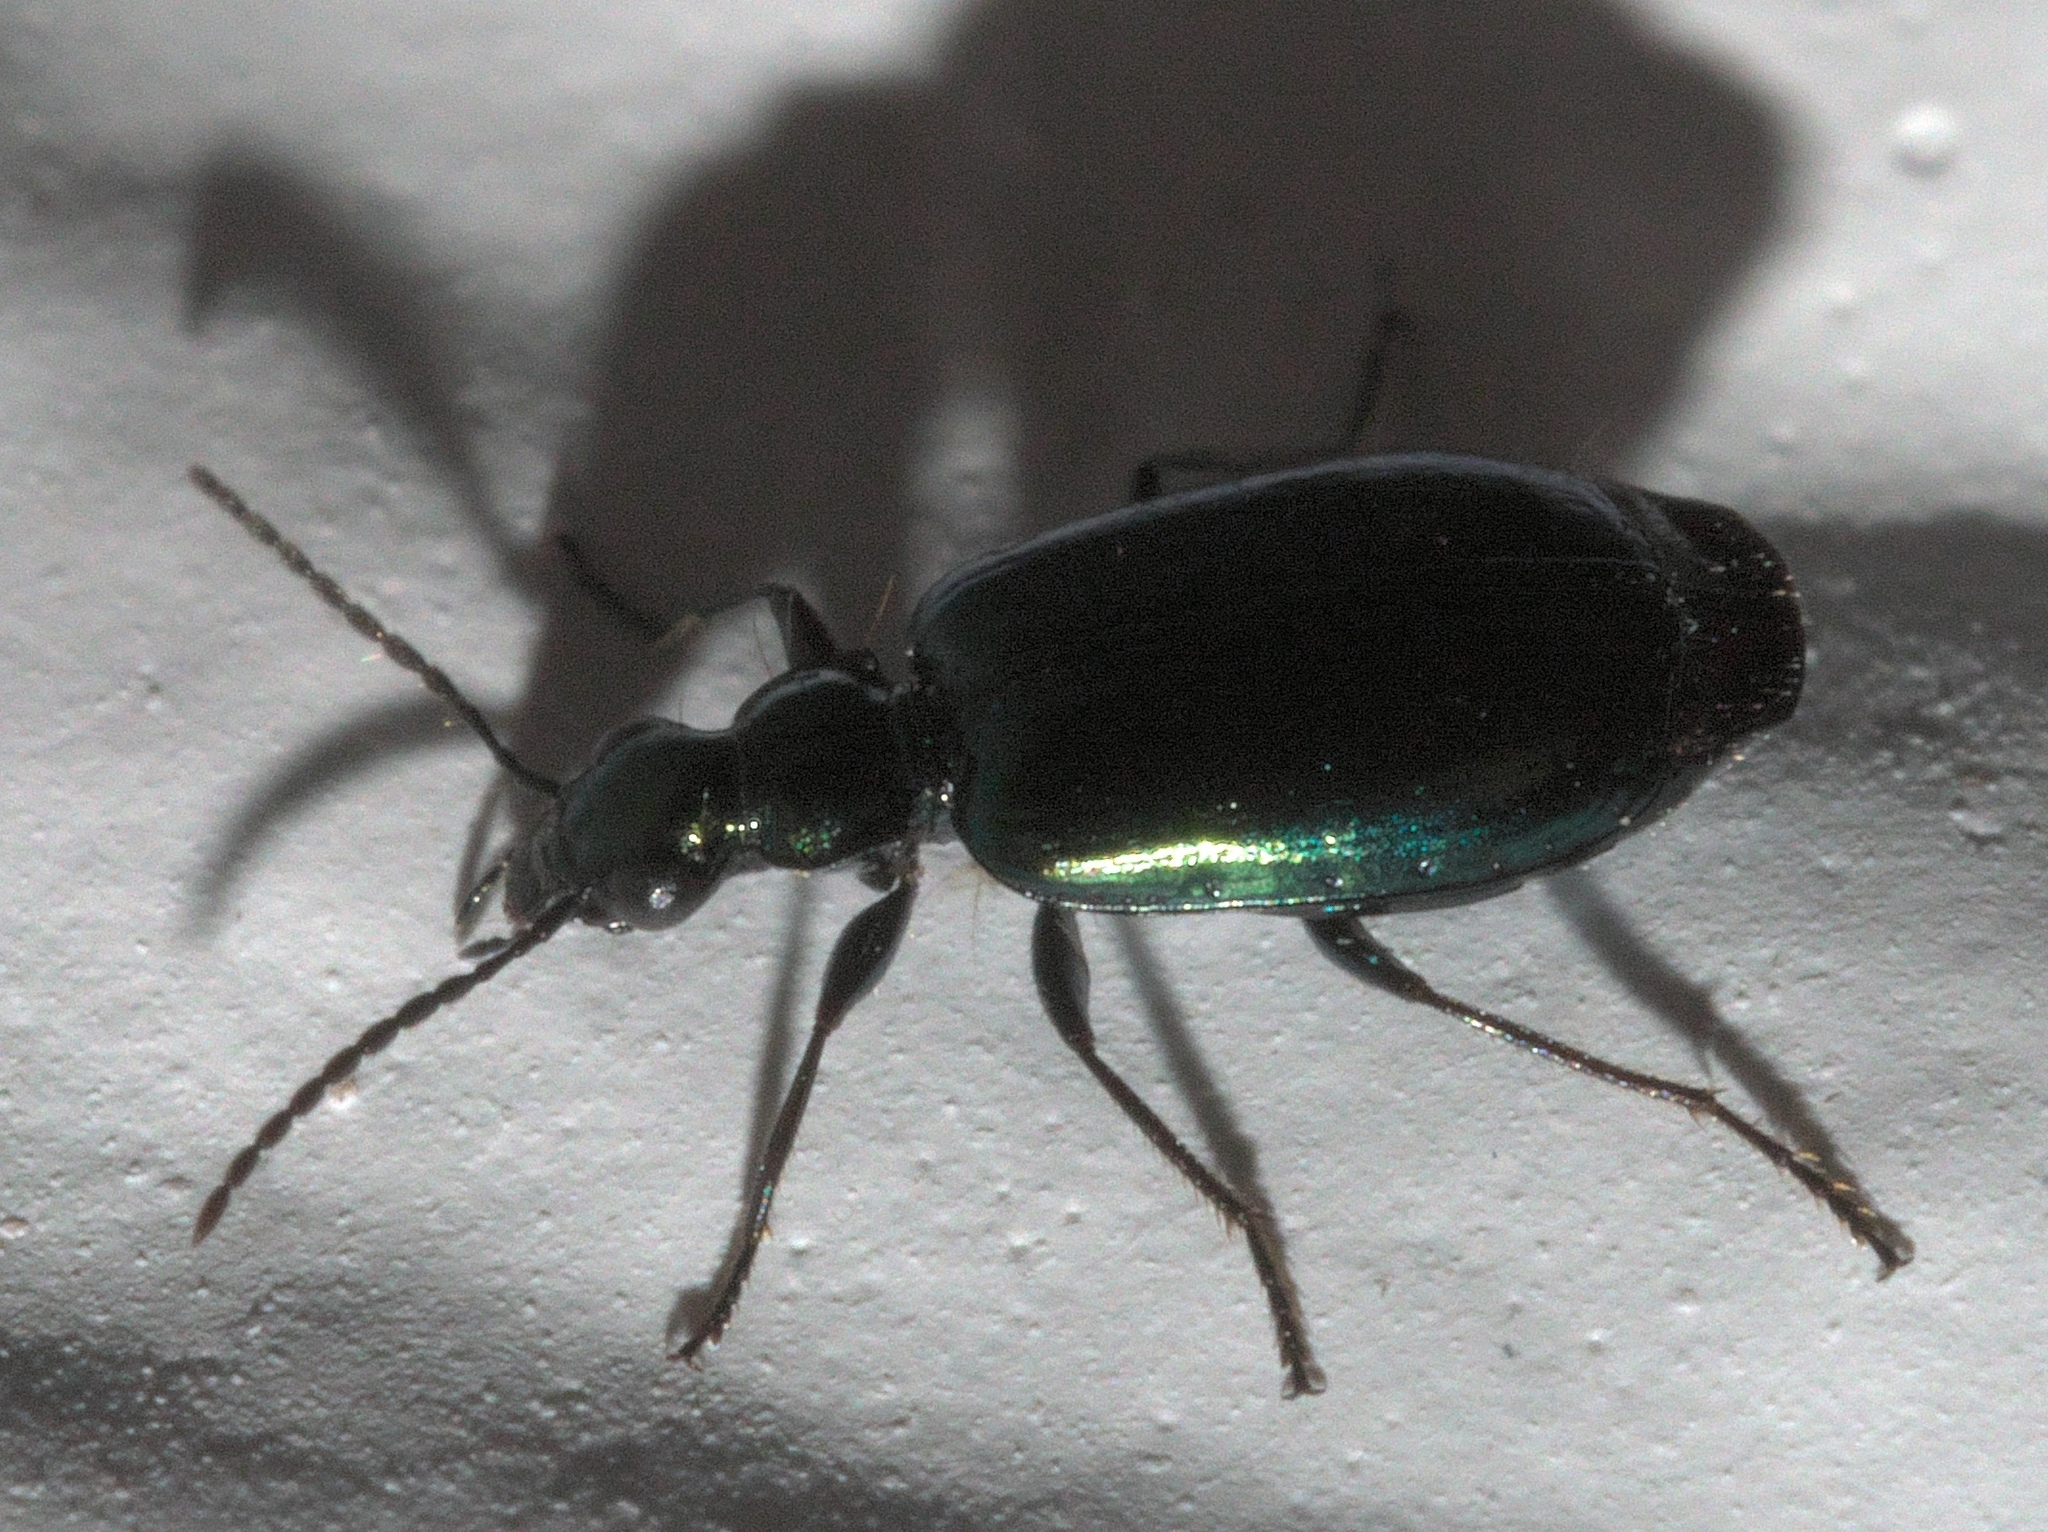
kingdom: Animalia
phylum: Arthropoda
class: Insecta
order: Coleoptera
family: Carabidae
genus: Lebia
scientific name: Lebia viridis
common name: Flower lebia beetle
